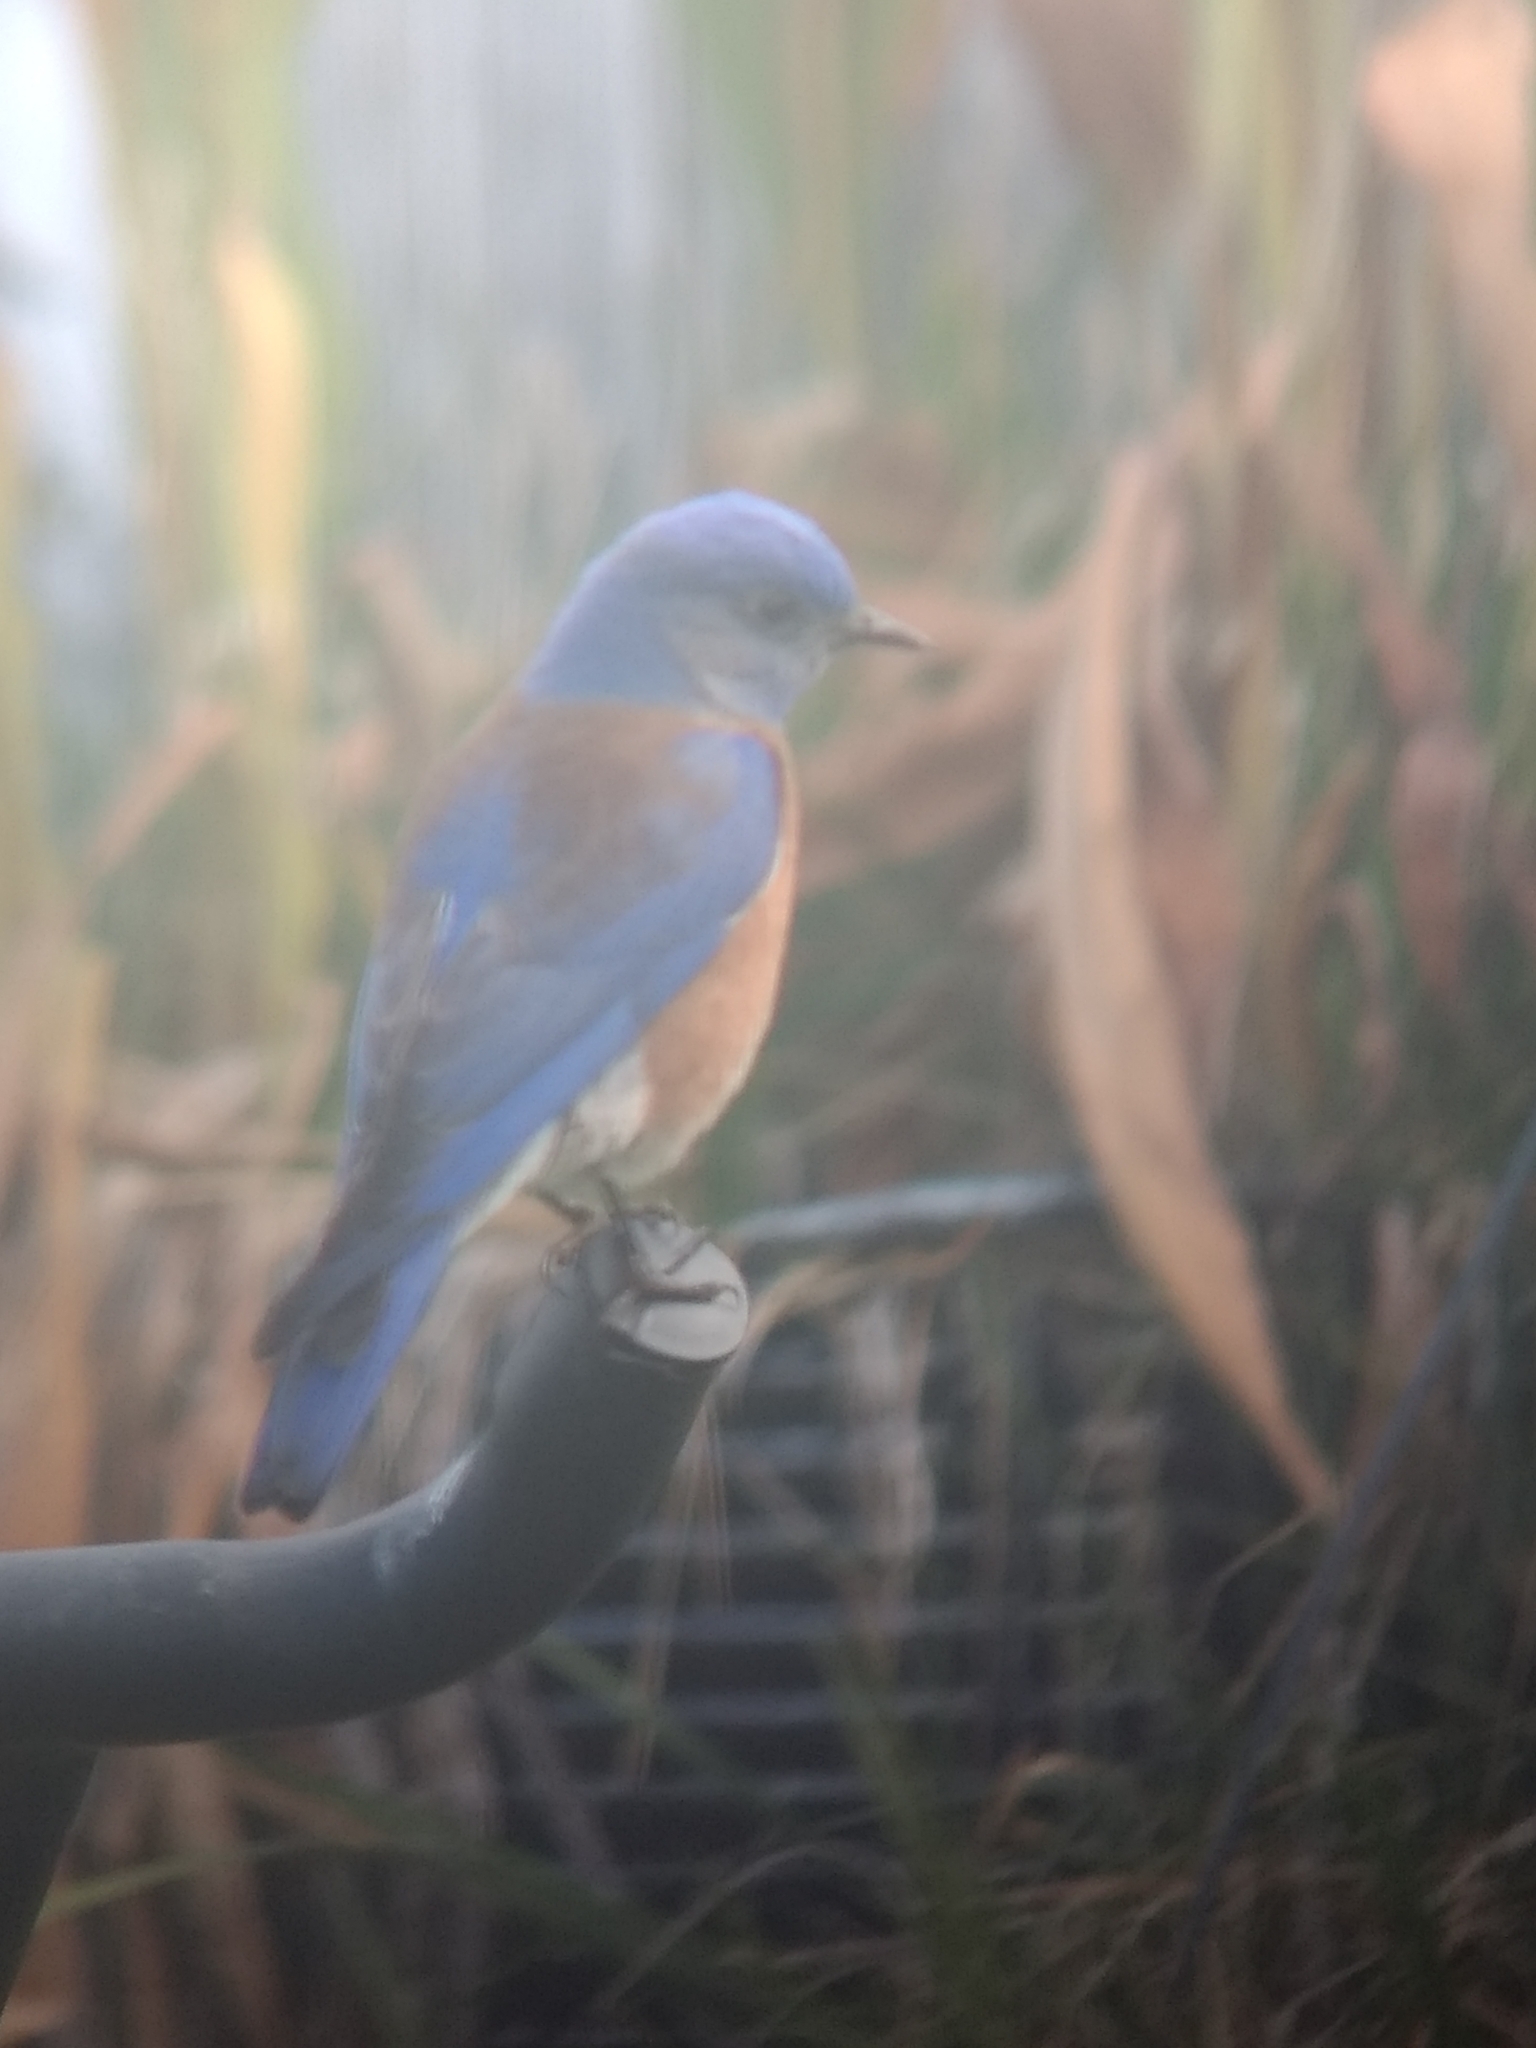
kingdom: Animalia
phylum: Chordata
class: Aves
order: Passeriformes
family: Turdidae
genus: Sialia
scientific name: Sialia mexicana
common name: Western bluebird
